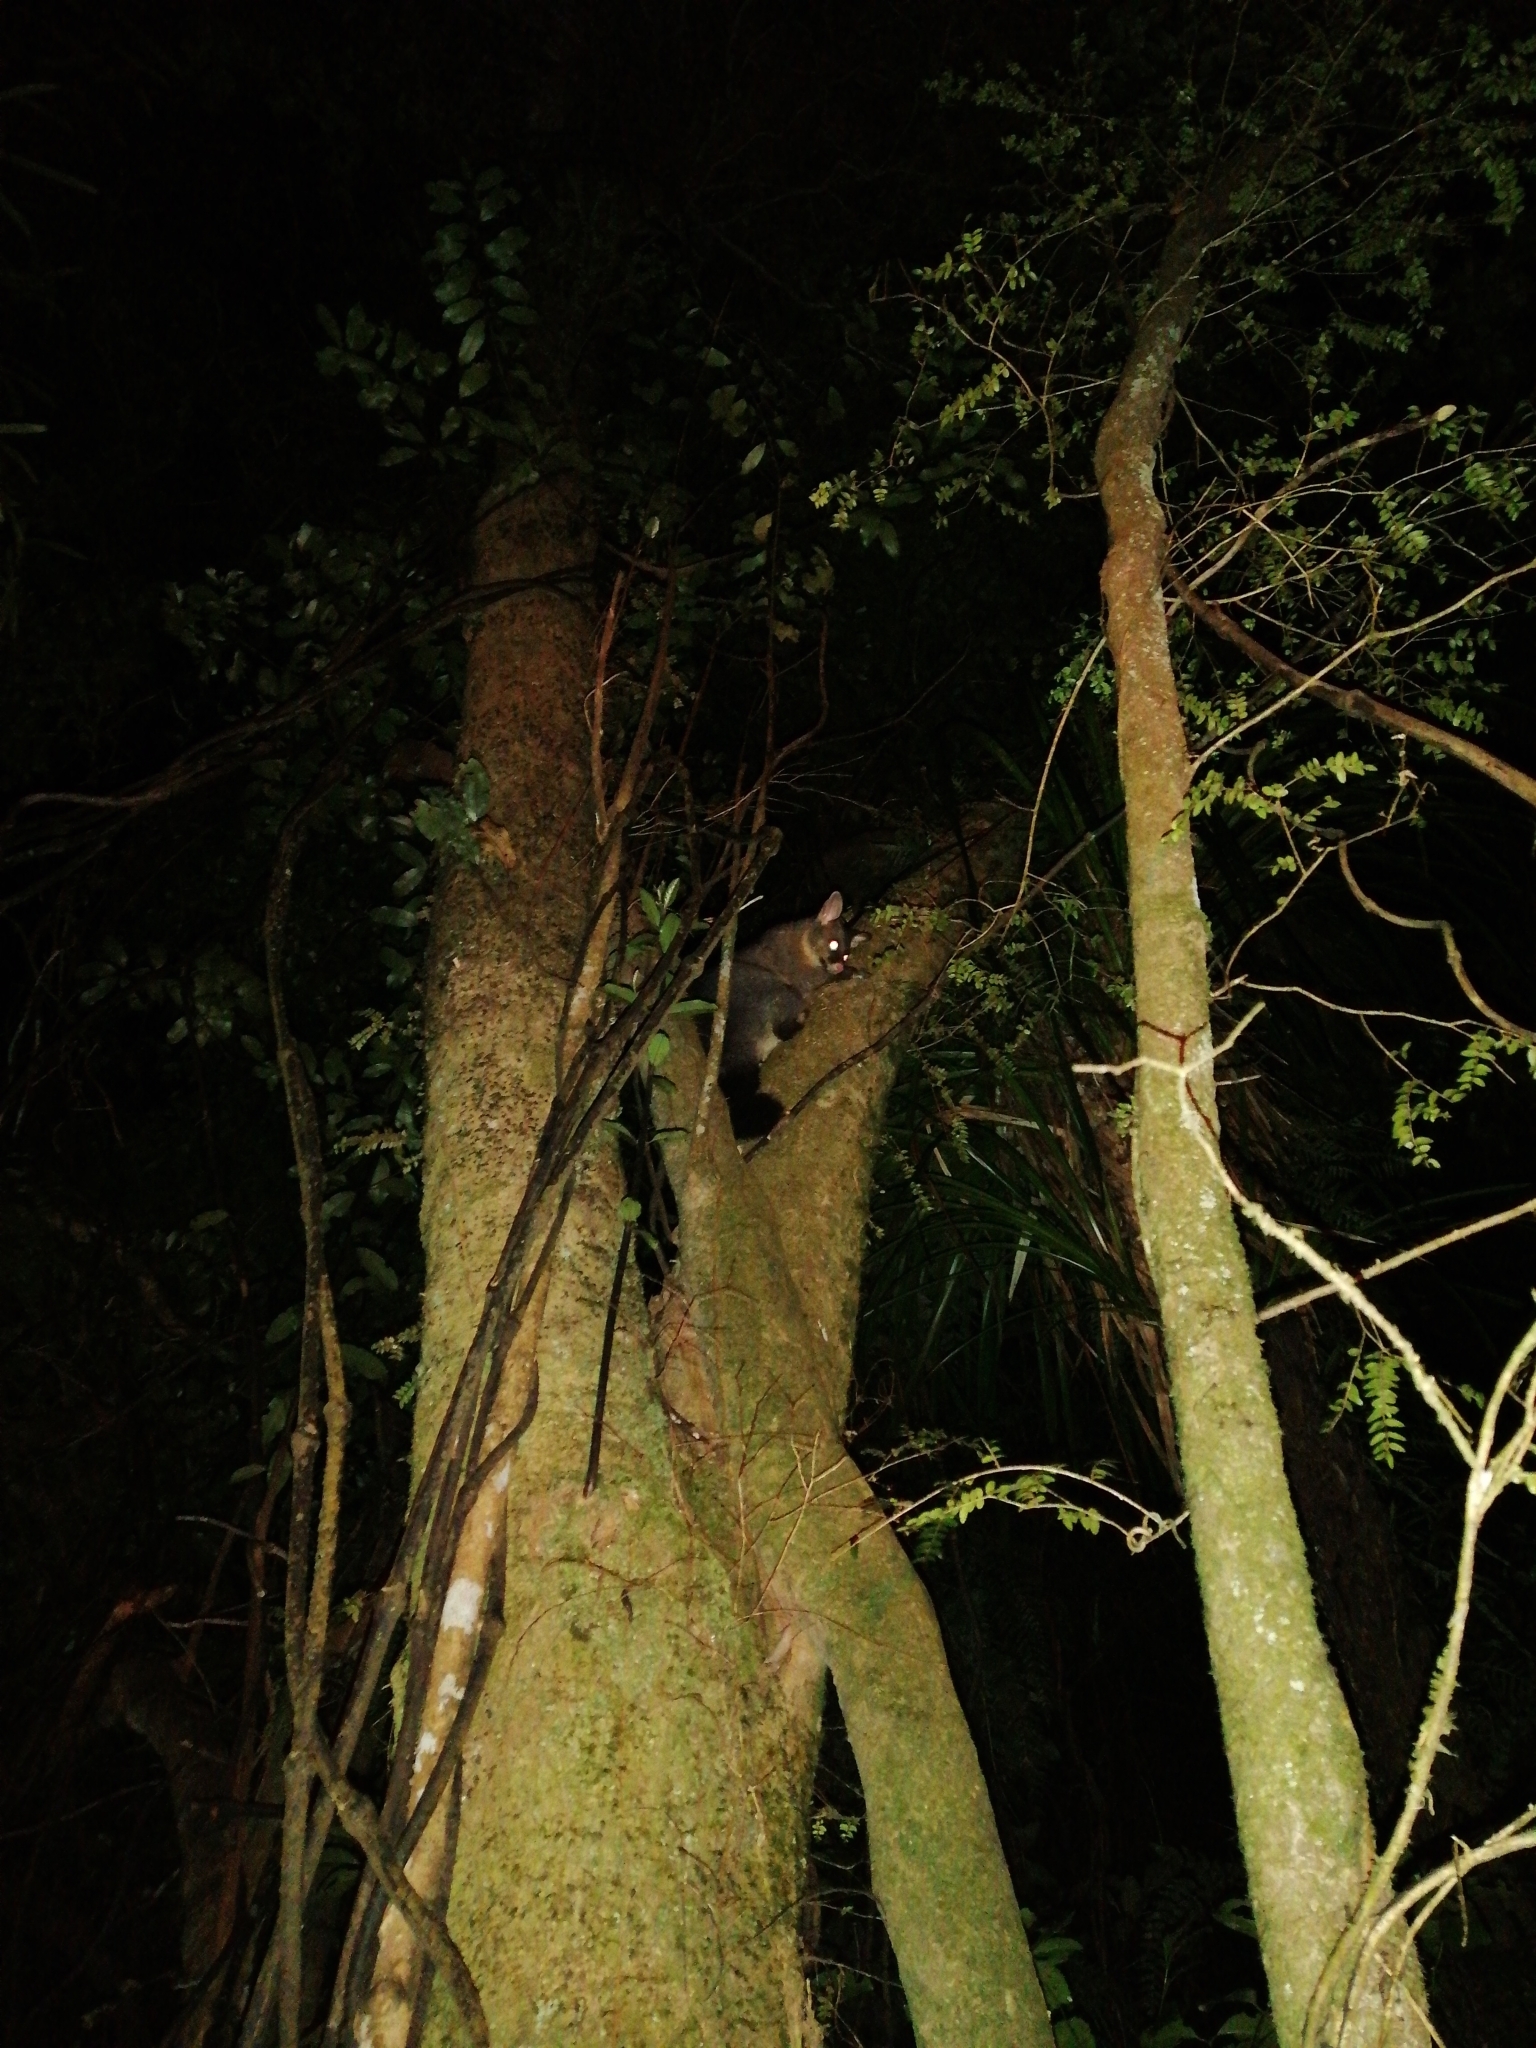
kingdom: Animalia
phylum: Chordata
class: Mammalia
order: Diprotodontia
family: Phalangeridae
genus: Trichosurus
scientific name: Trichosurus vulpecula
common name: Common brushtail
